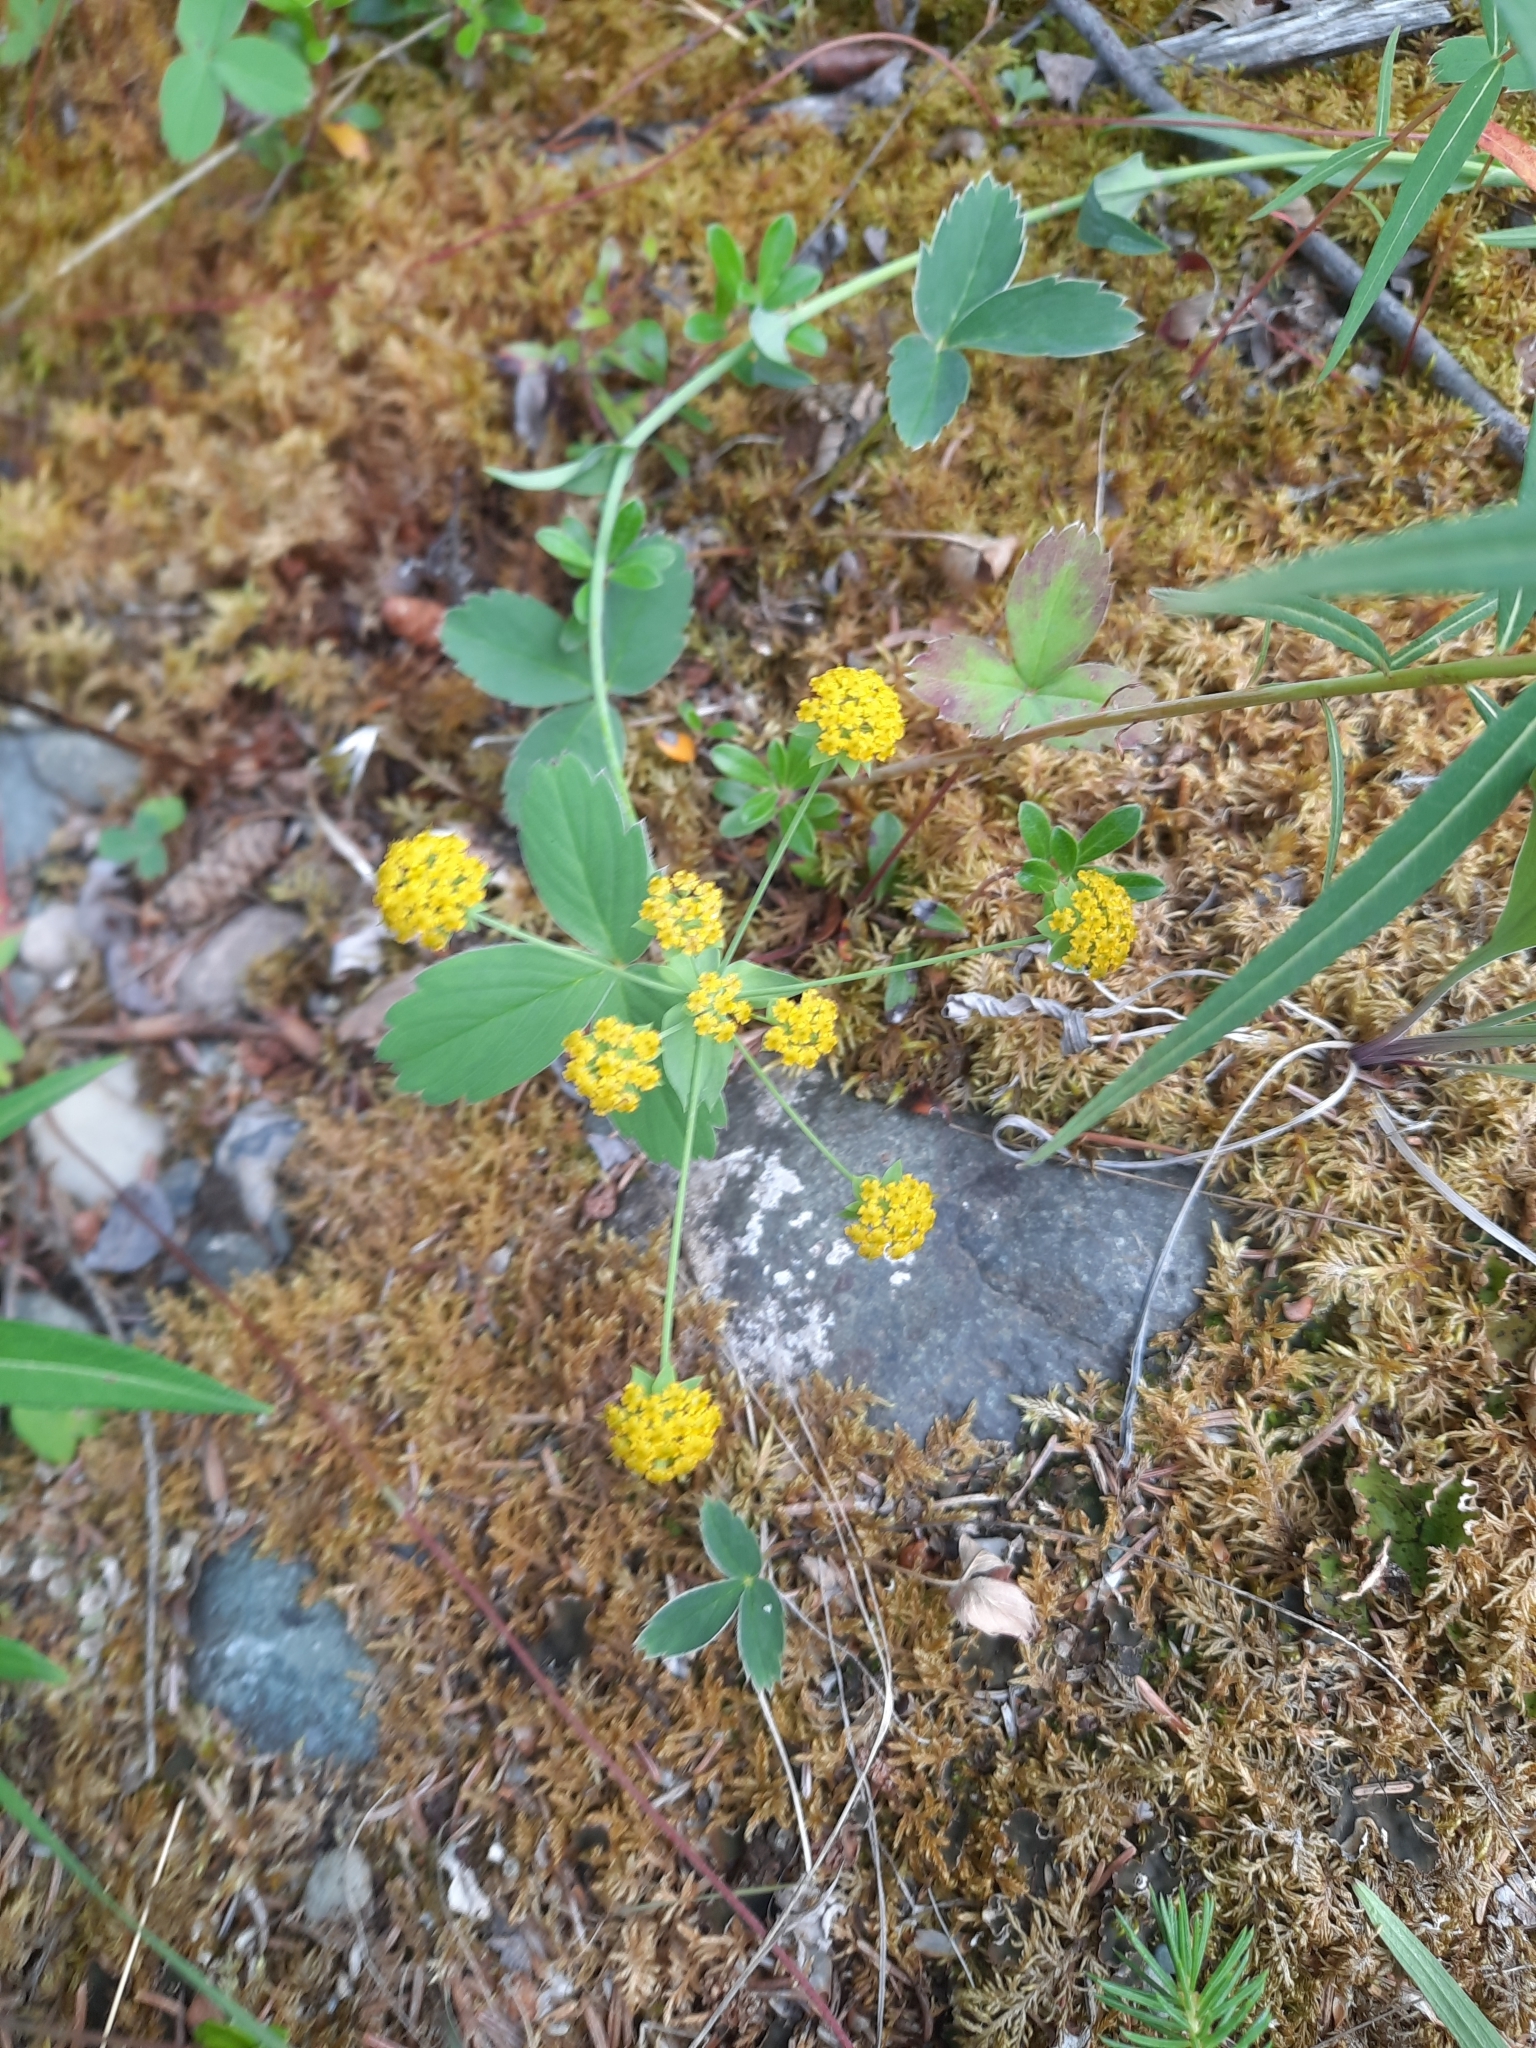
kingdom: Plantae
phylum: Tracheophyta
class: Magnoliopsida
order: Apiales
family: Apiaceae
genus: Bupleurum
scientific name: Bupleurum americanum
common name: American thoroughwax
